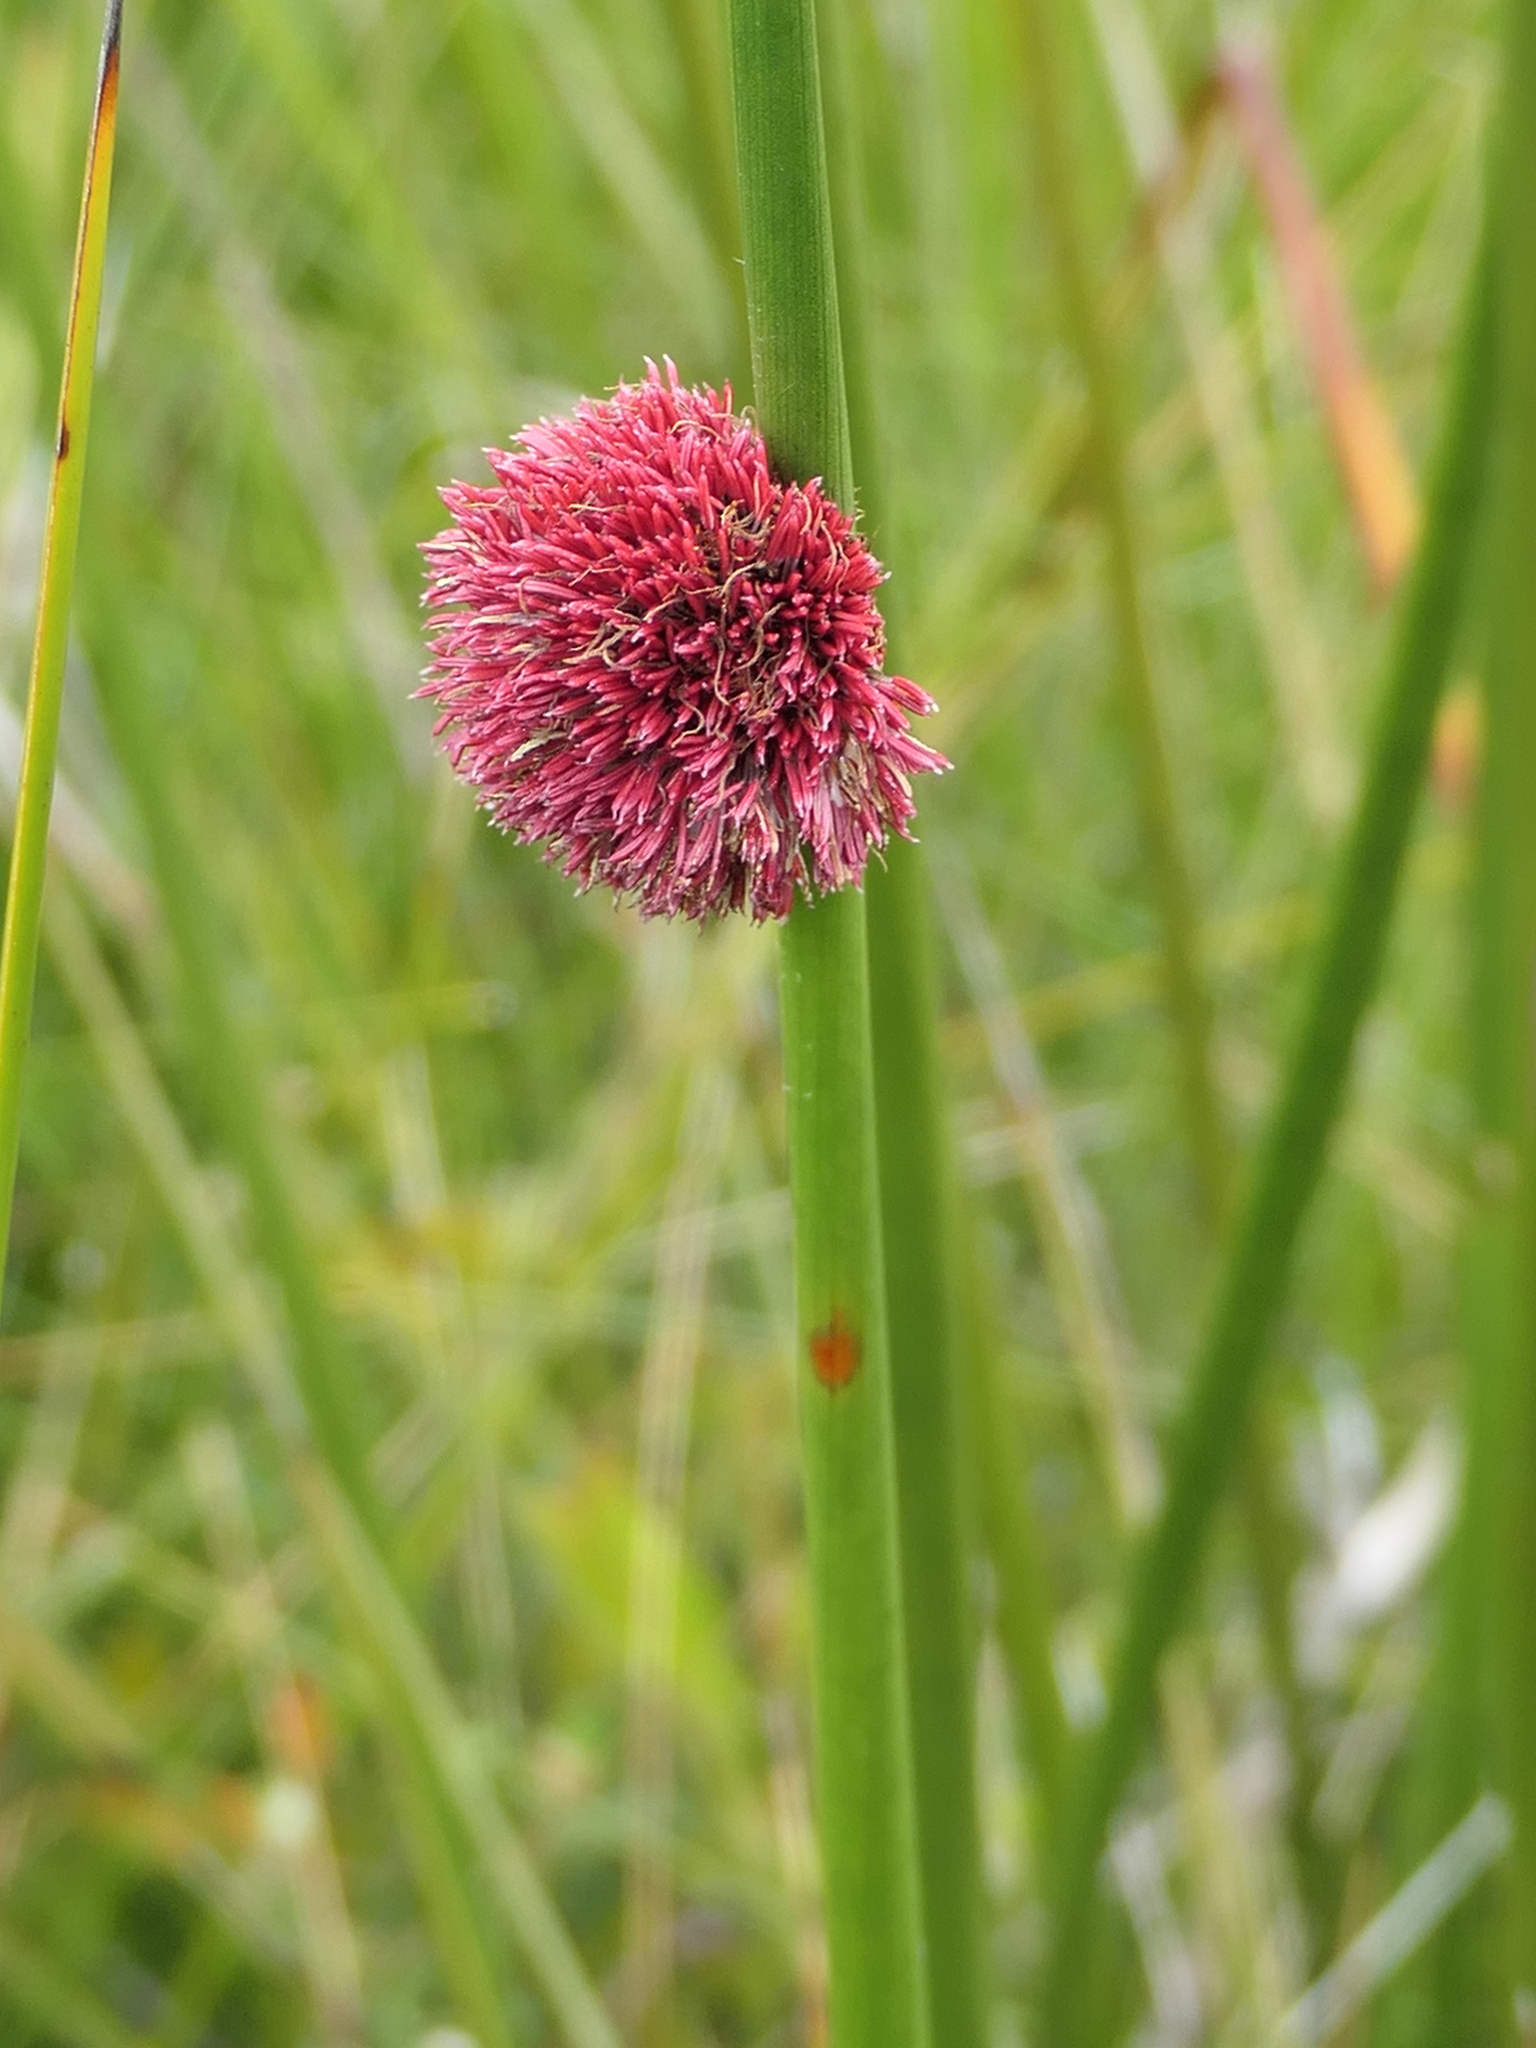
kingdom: Plantae
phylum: Tracheophyta
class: Liliopsida
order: Poales
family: Cyperaceae
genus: Chorizandra
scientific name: Chorizandra sphaerocephala
